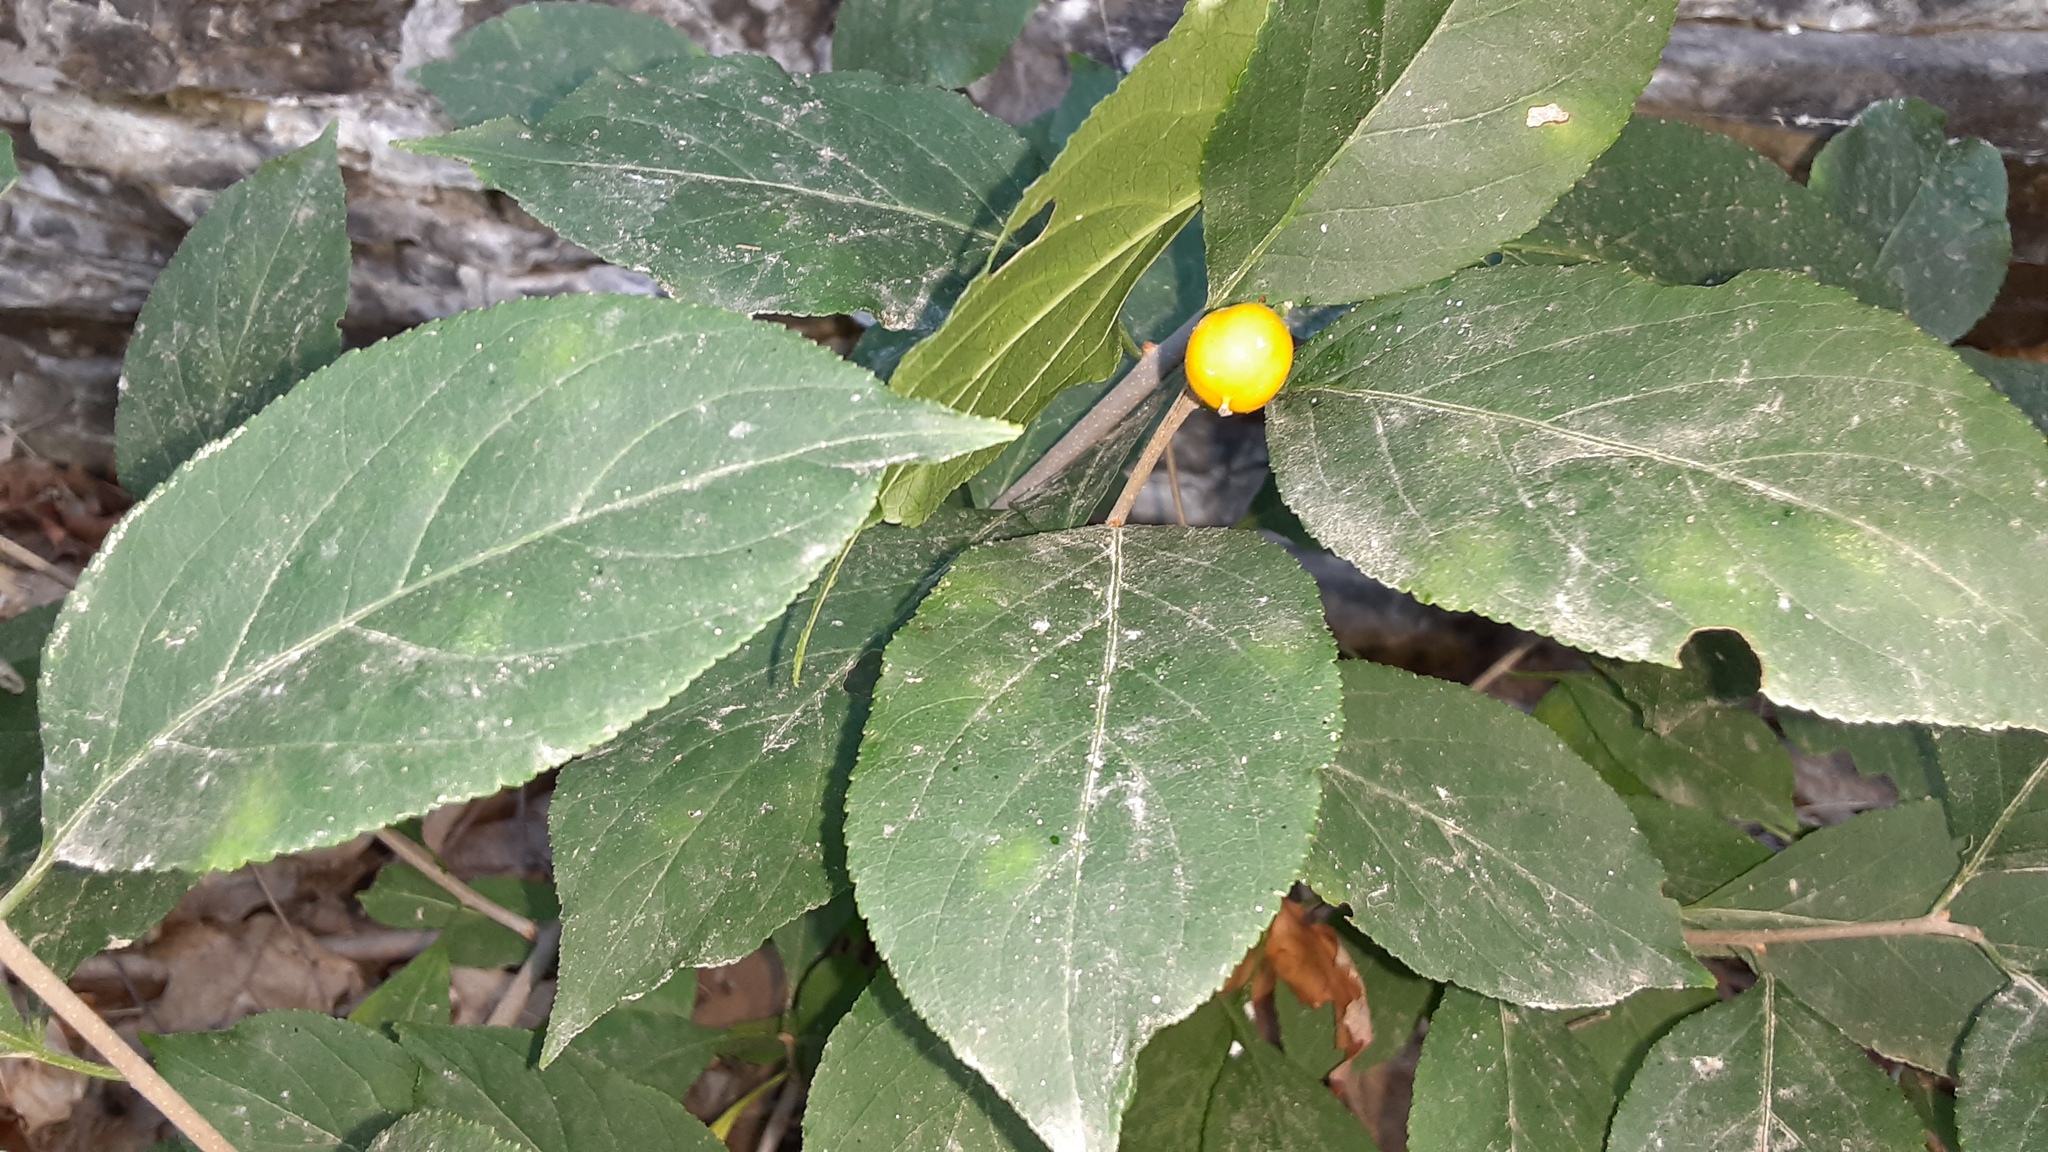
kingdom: Plantae
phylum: Tracheophyta
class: Magnoliopsida
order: Celastrales
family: Celastraceae
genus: Celastrus
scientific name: Celastrus orbiculatus
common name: Oriental bittersweet
